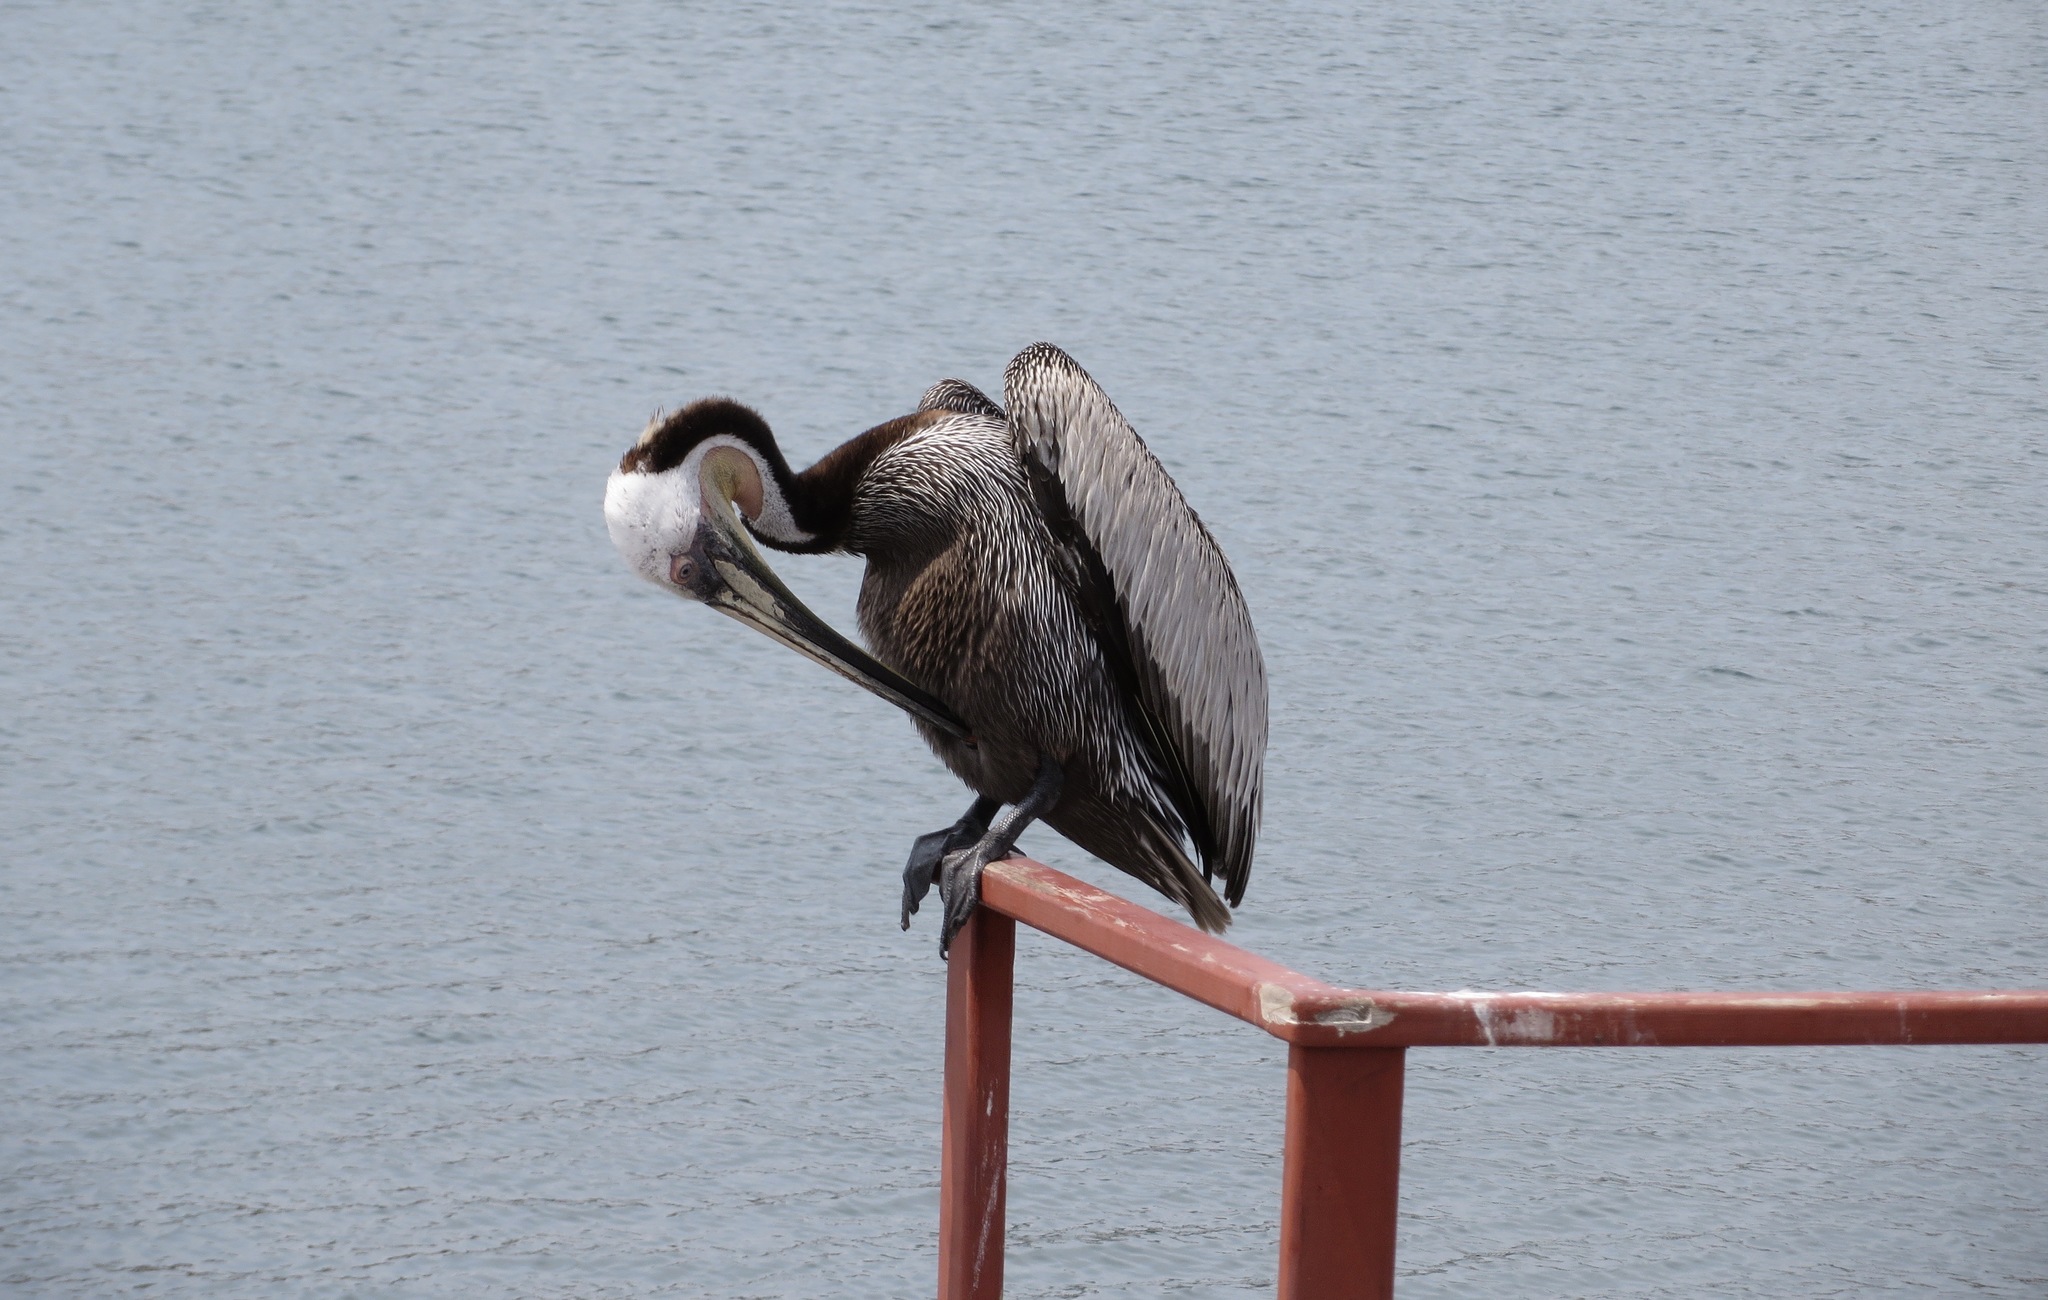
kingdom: Animalia
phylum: Chordata
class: Aves
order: Pelecaniformes
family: Pelecanidae
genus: Pelecanus
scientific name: Pelecanus occidentalis
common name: Brown pelican
